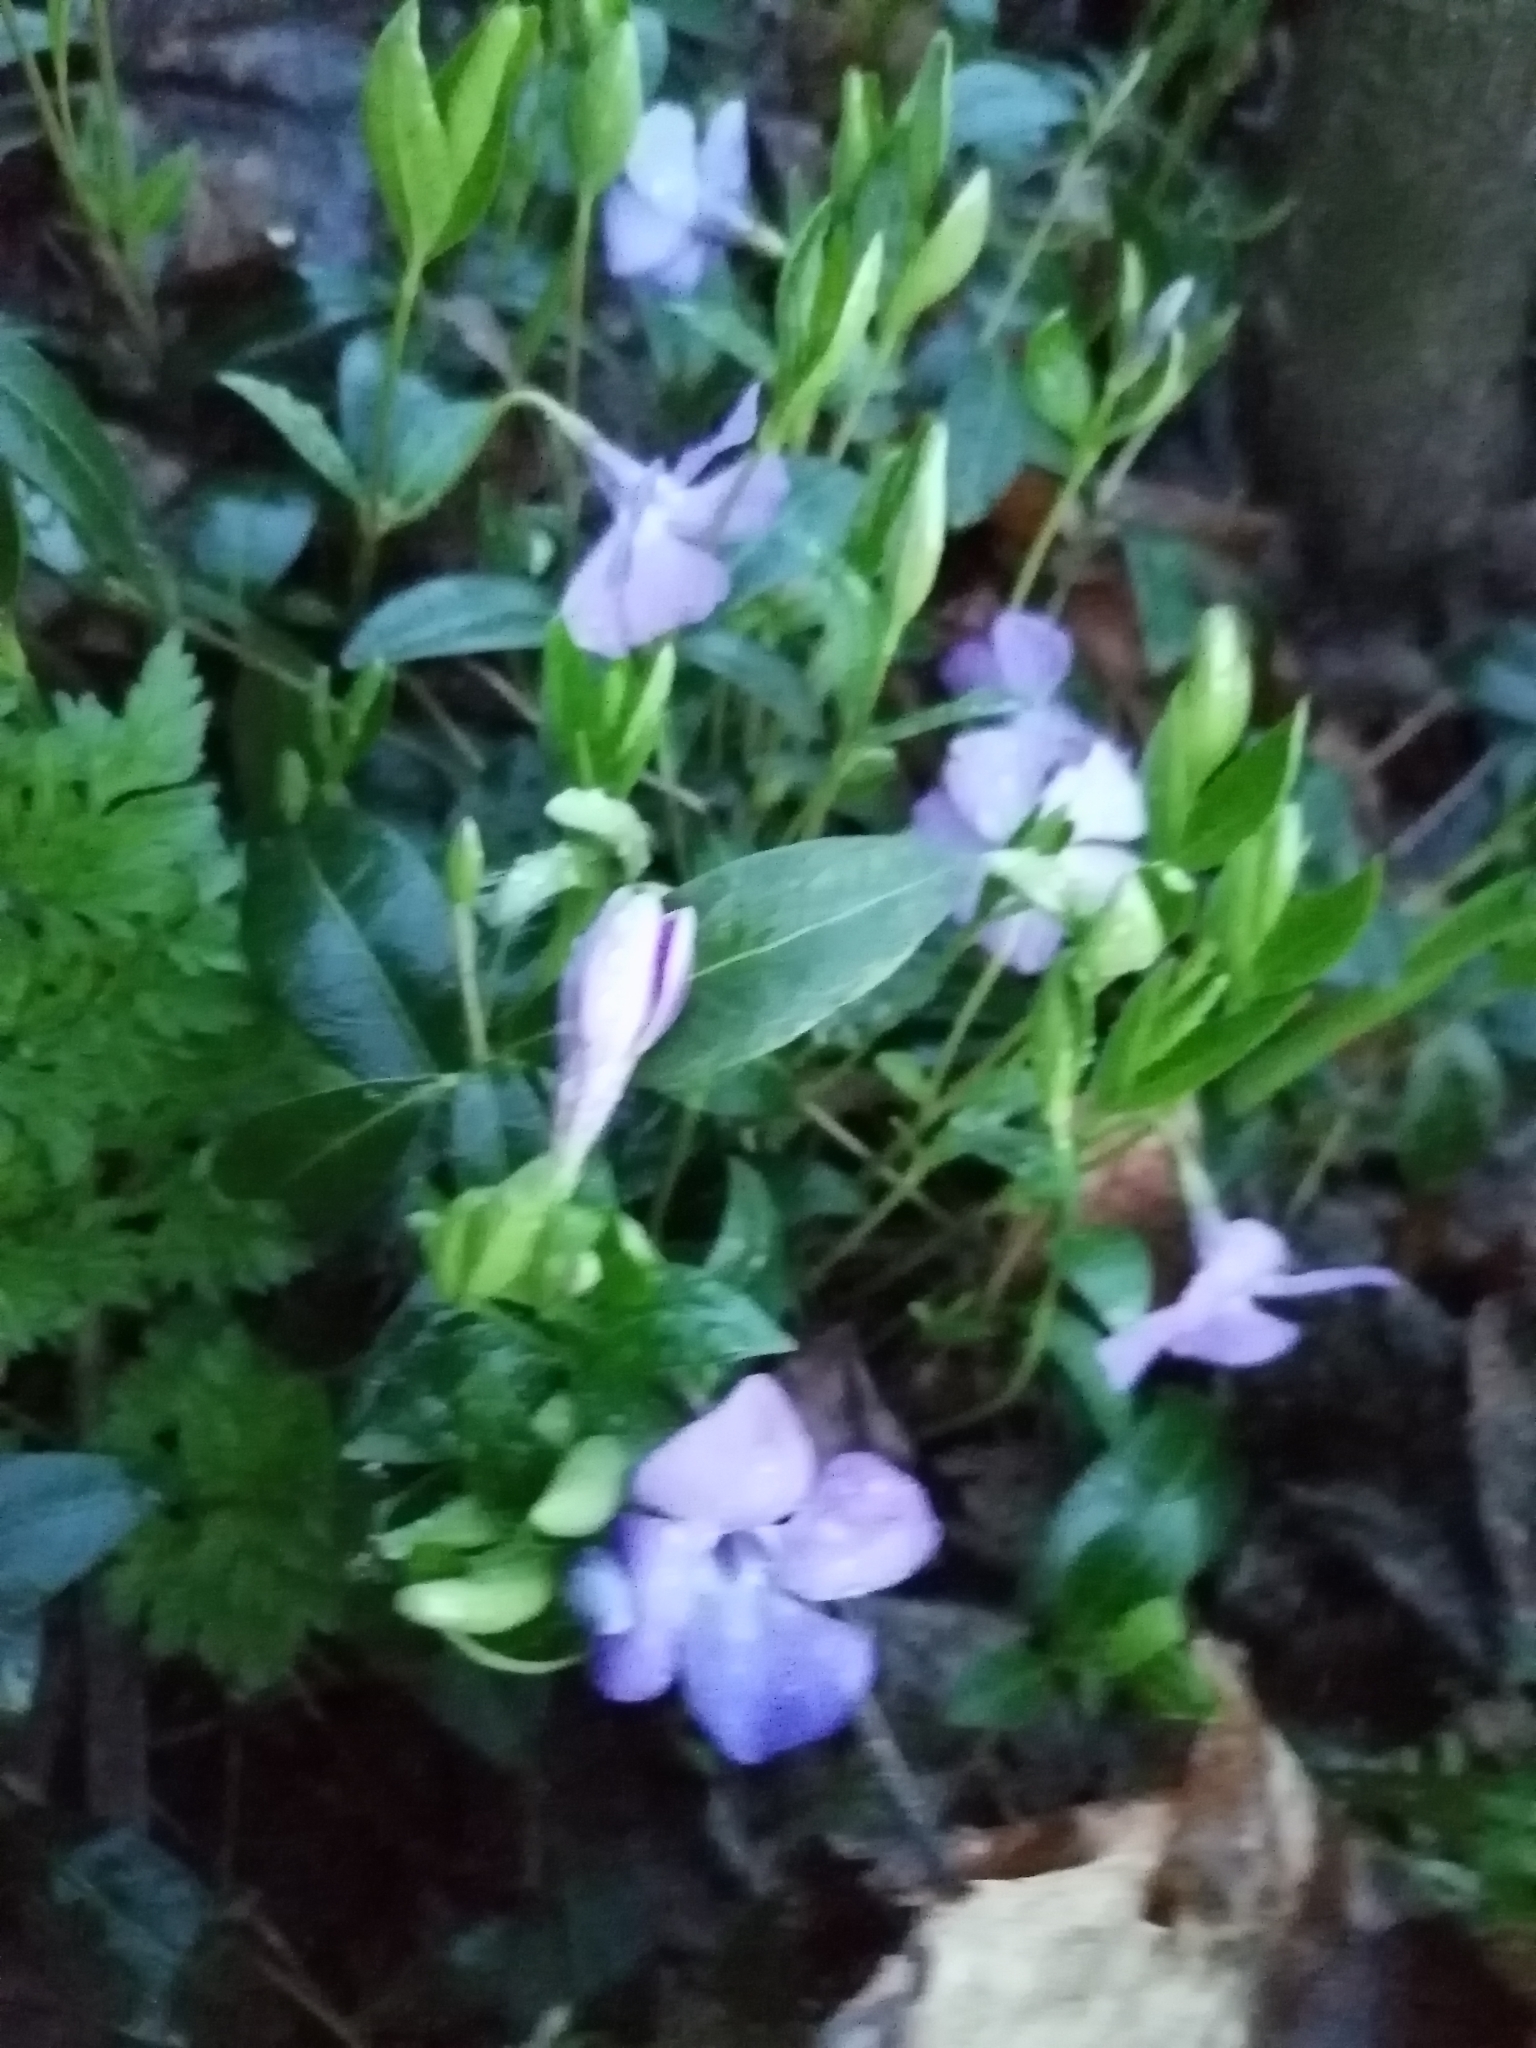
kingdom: Plantae
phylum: Tracheophyta
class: Magnoliopsida
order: Gentianales
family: Apocynaceae
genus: Vinca
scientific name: Vinca minor
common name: Lesser periwinkle
